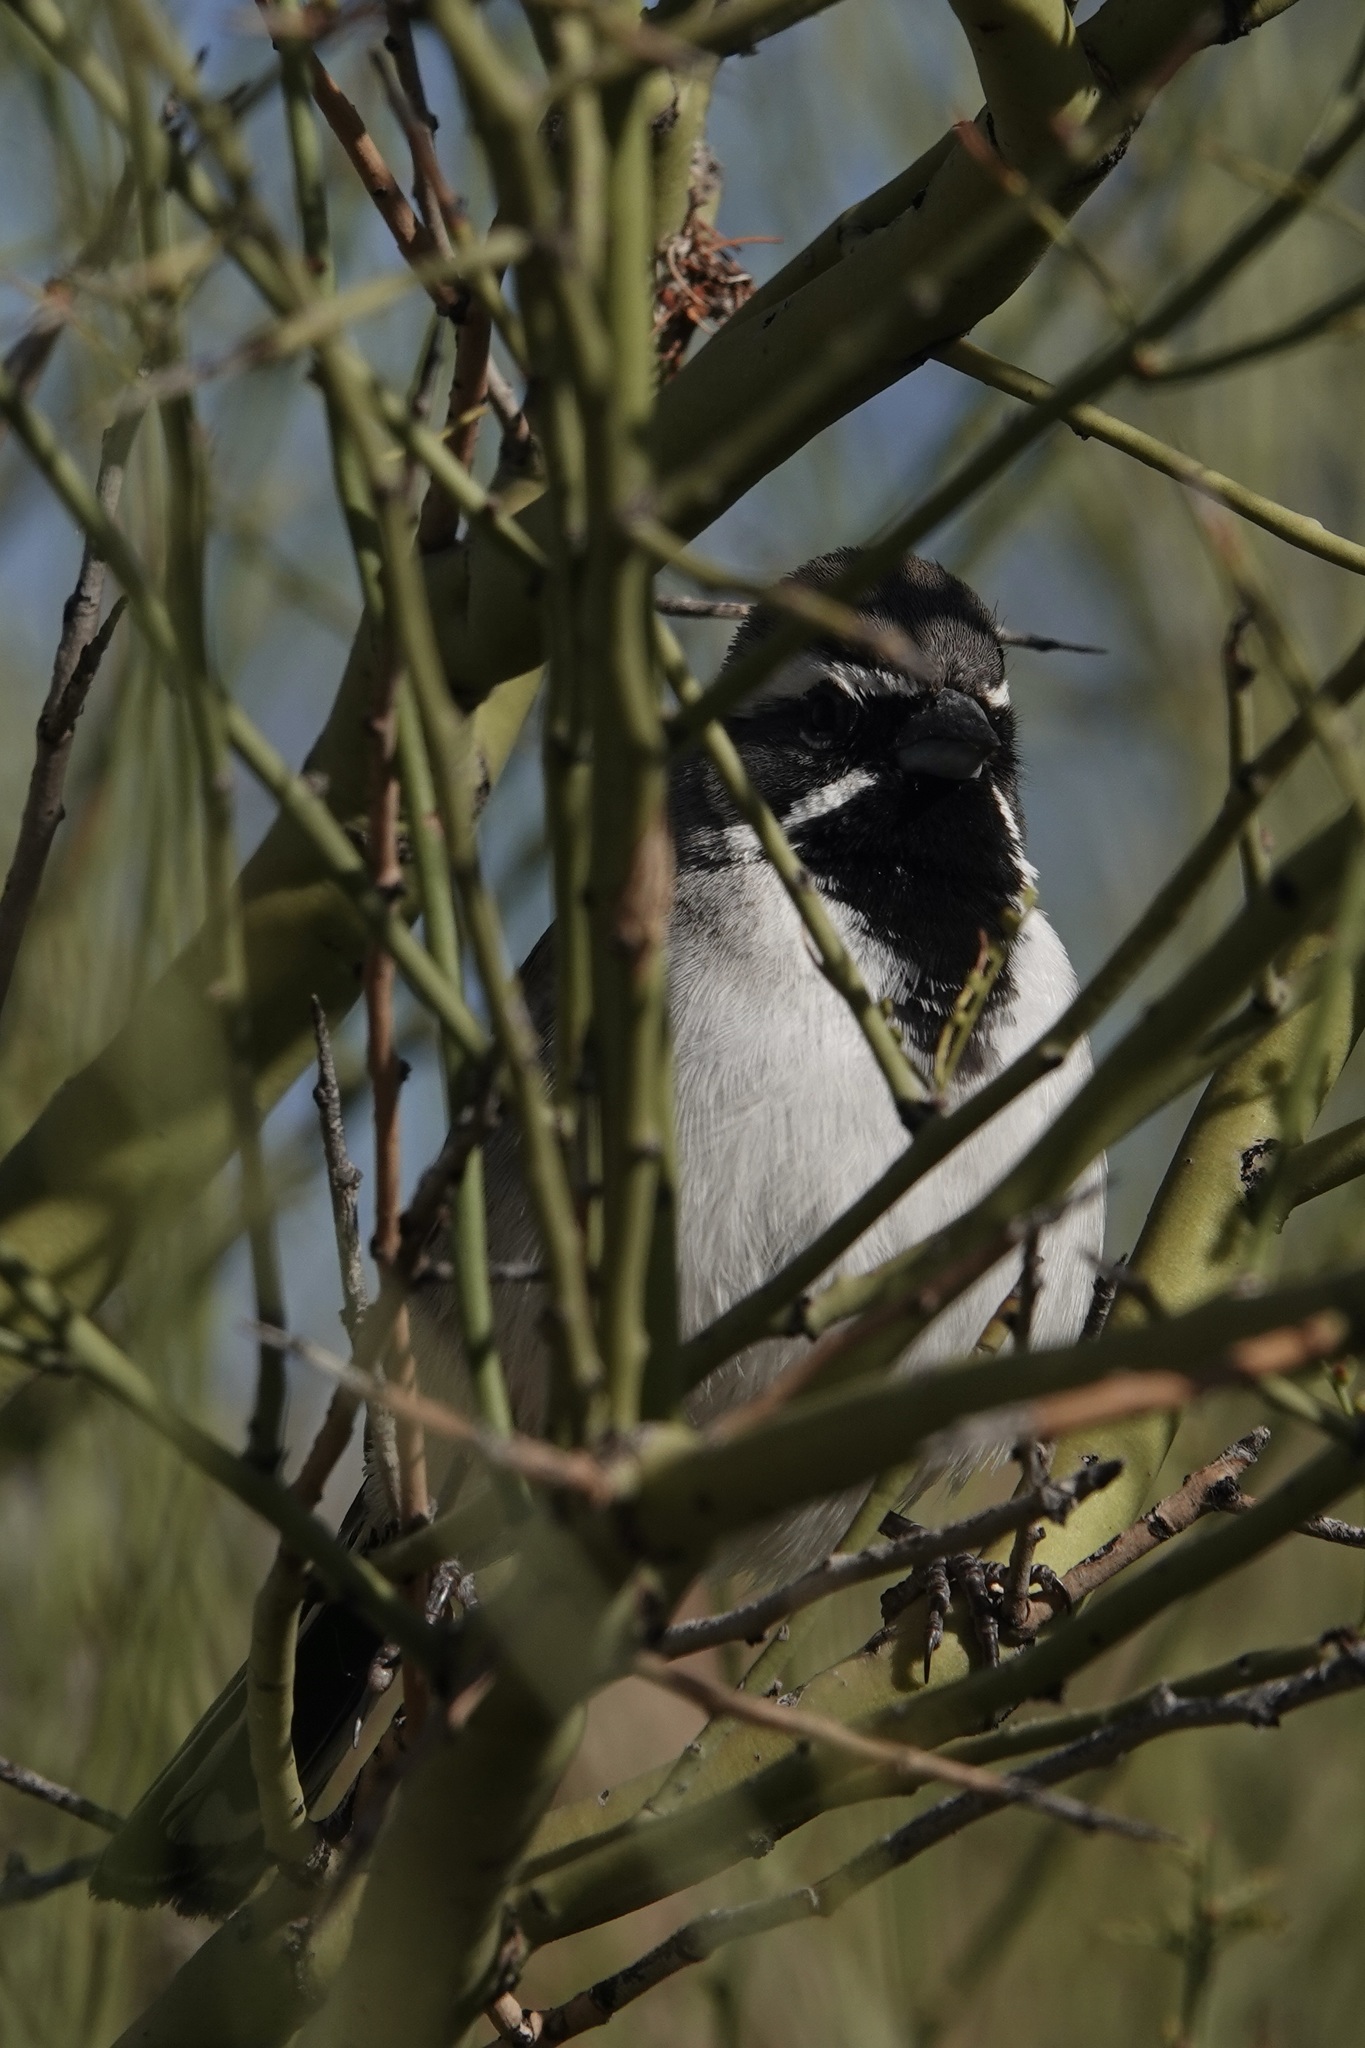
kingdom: Animalia
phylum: Chordata
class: Aves
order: Passeriformes
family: Passerellidae
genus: Amphispiza
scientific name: Amphispiza bilineata
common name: Black-throated sparrow
